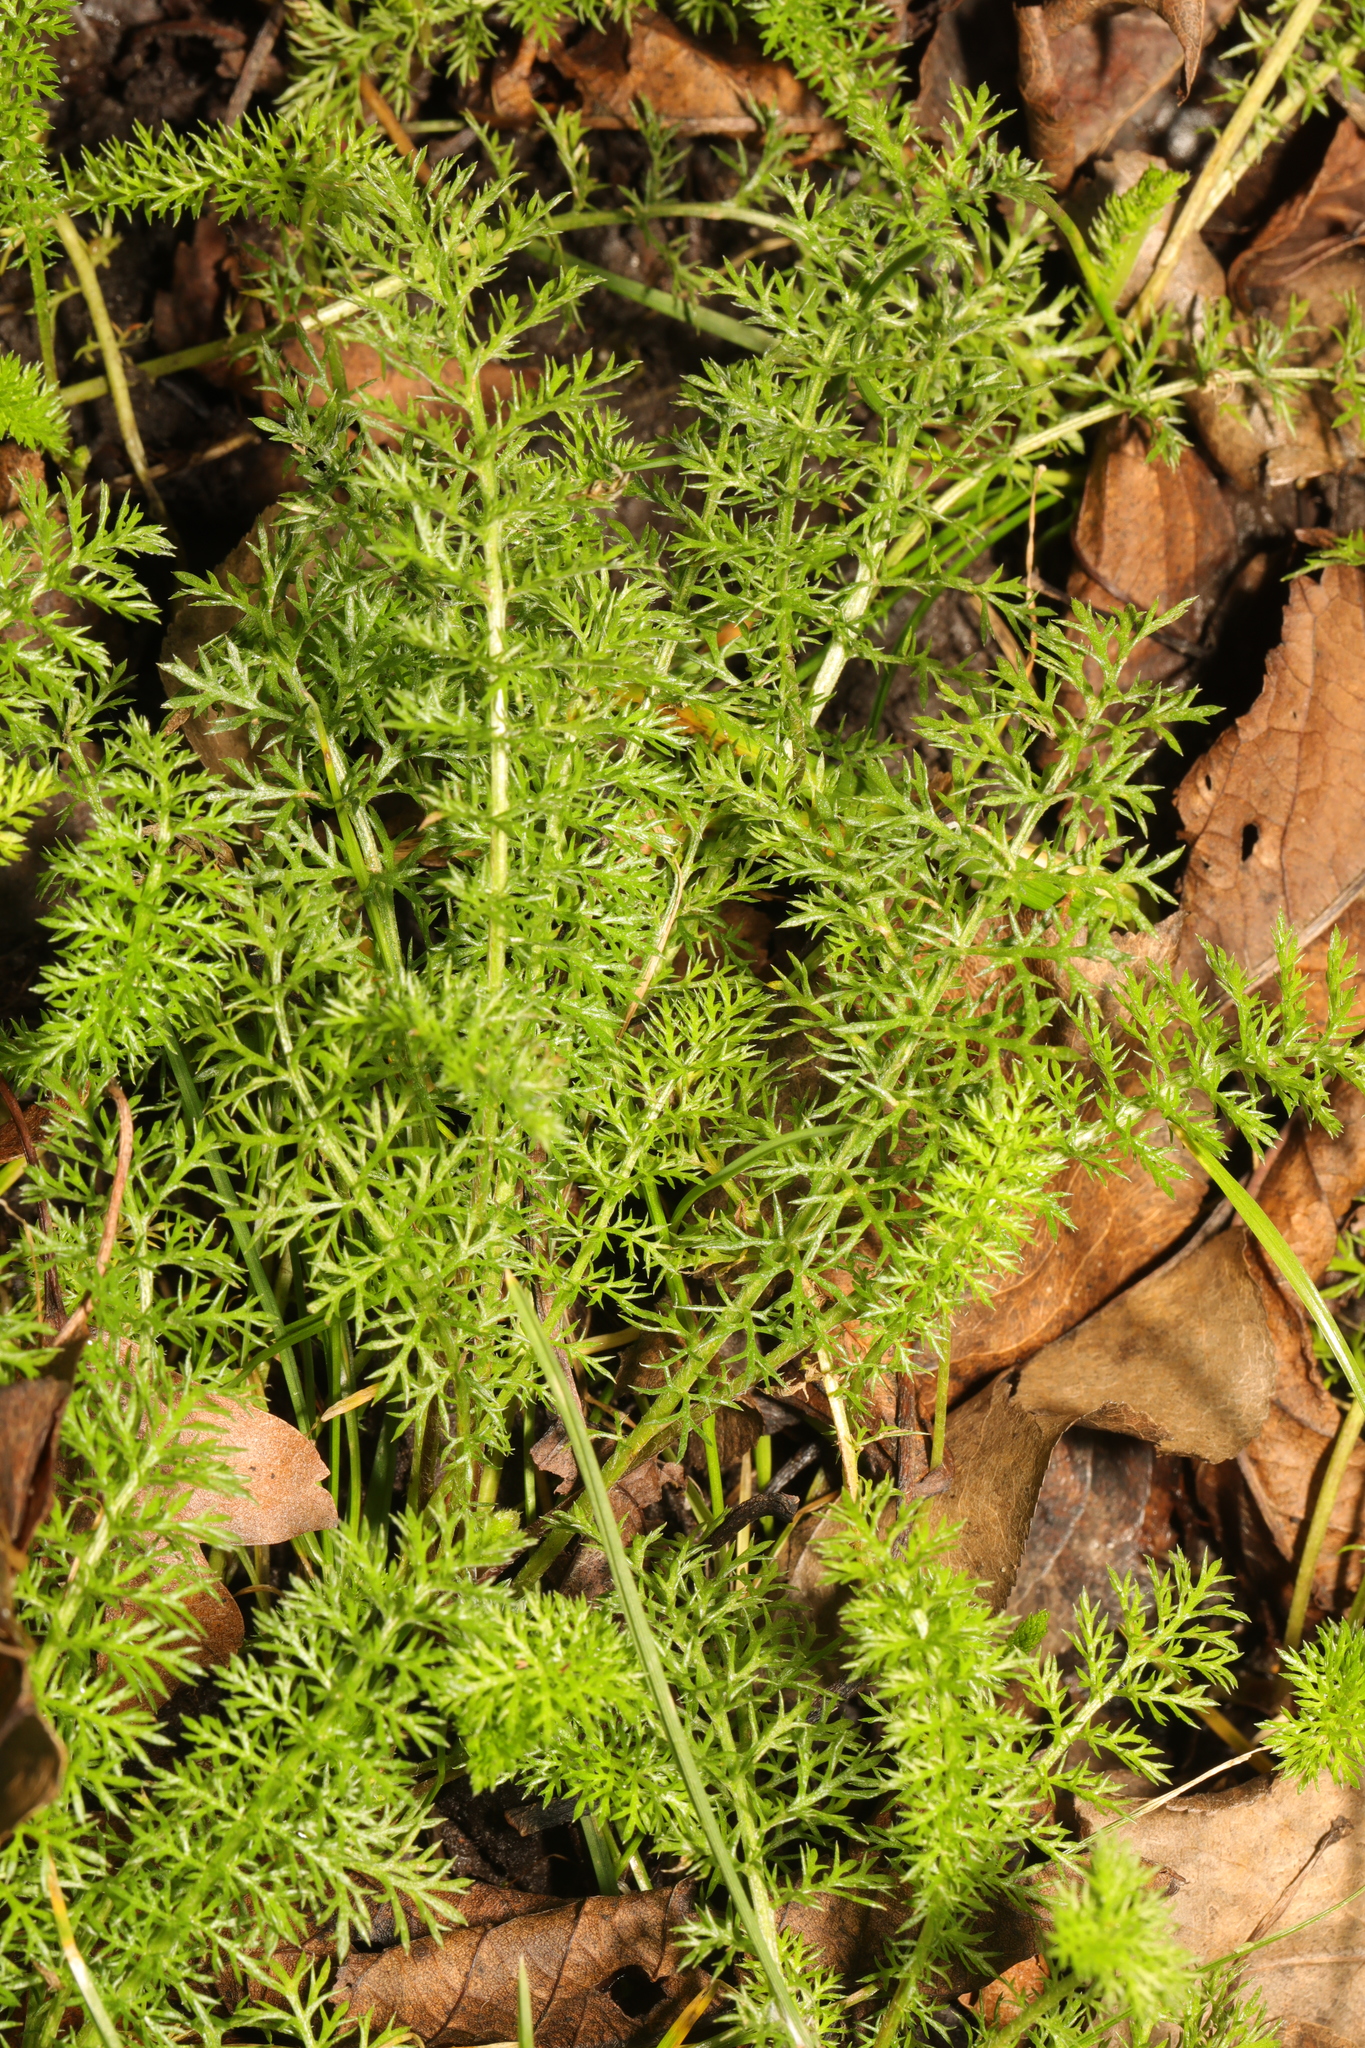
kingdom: Plantae
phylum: Tracheophyta
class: Magnoliopsida
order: Asterales
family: Asteraceae
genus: Achillea
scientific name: Achillea millefolium
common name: Yarrow
